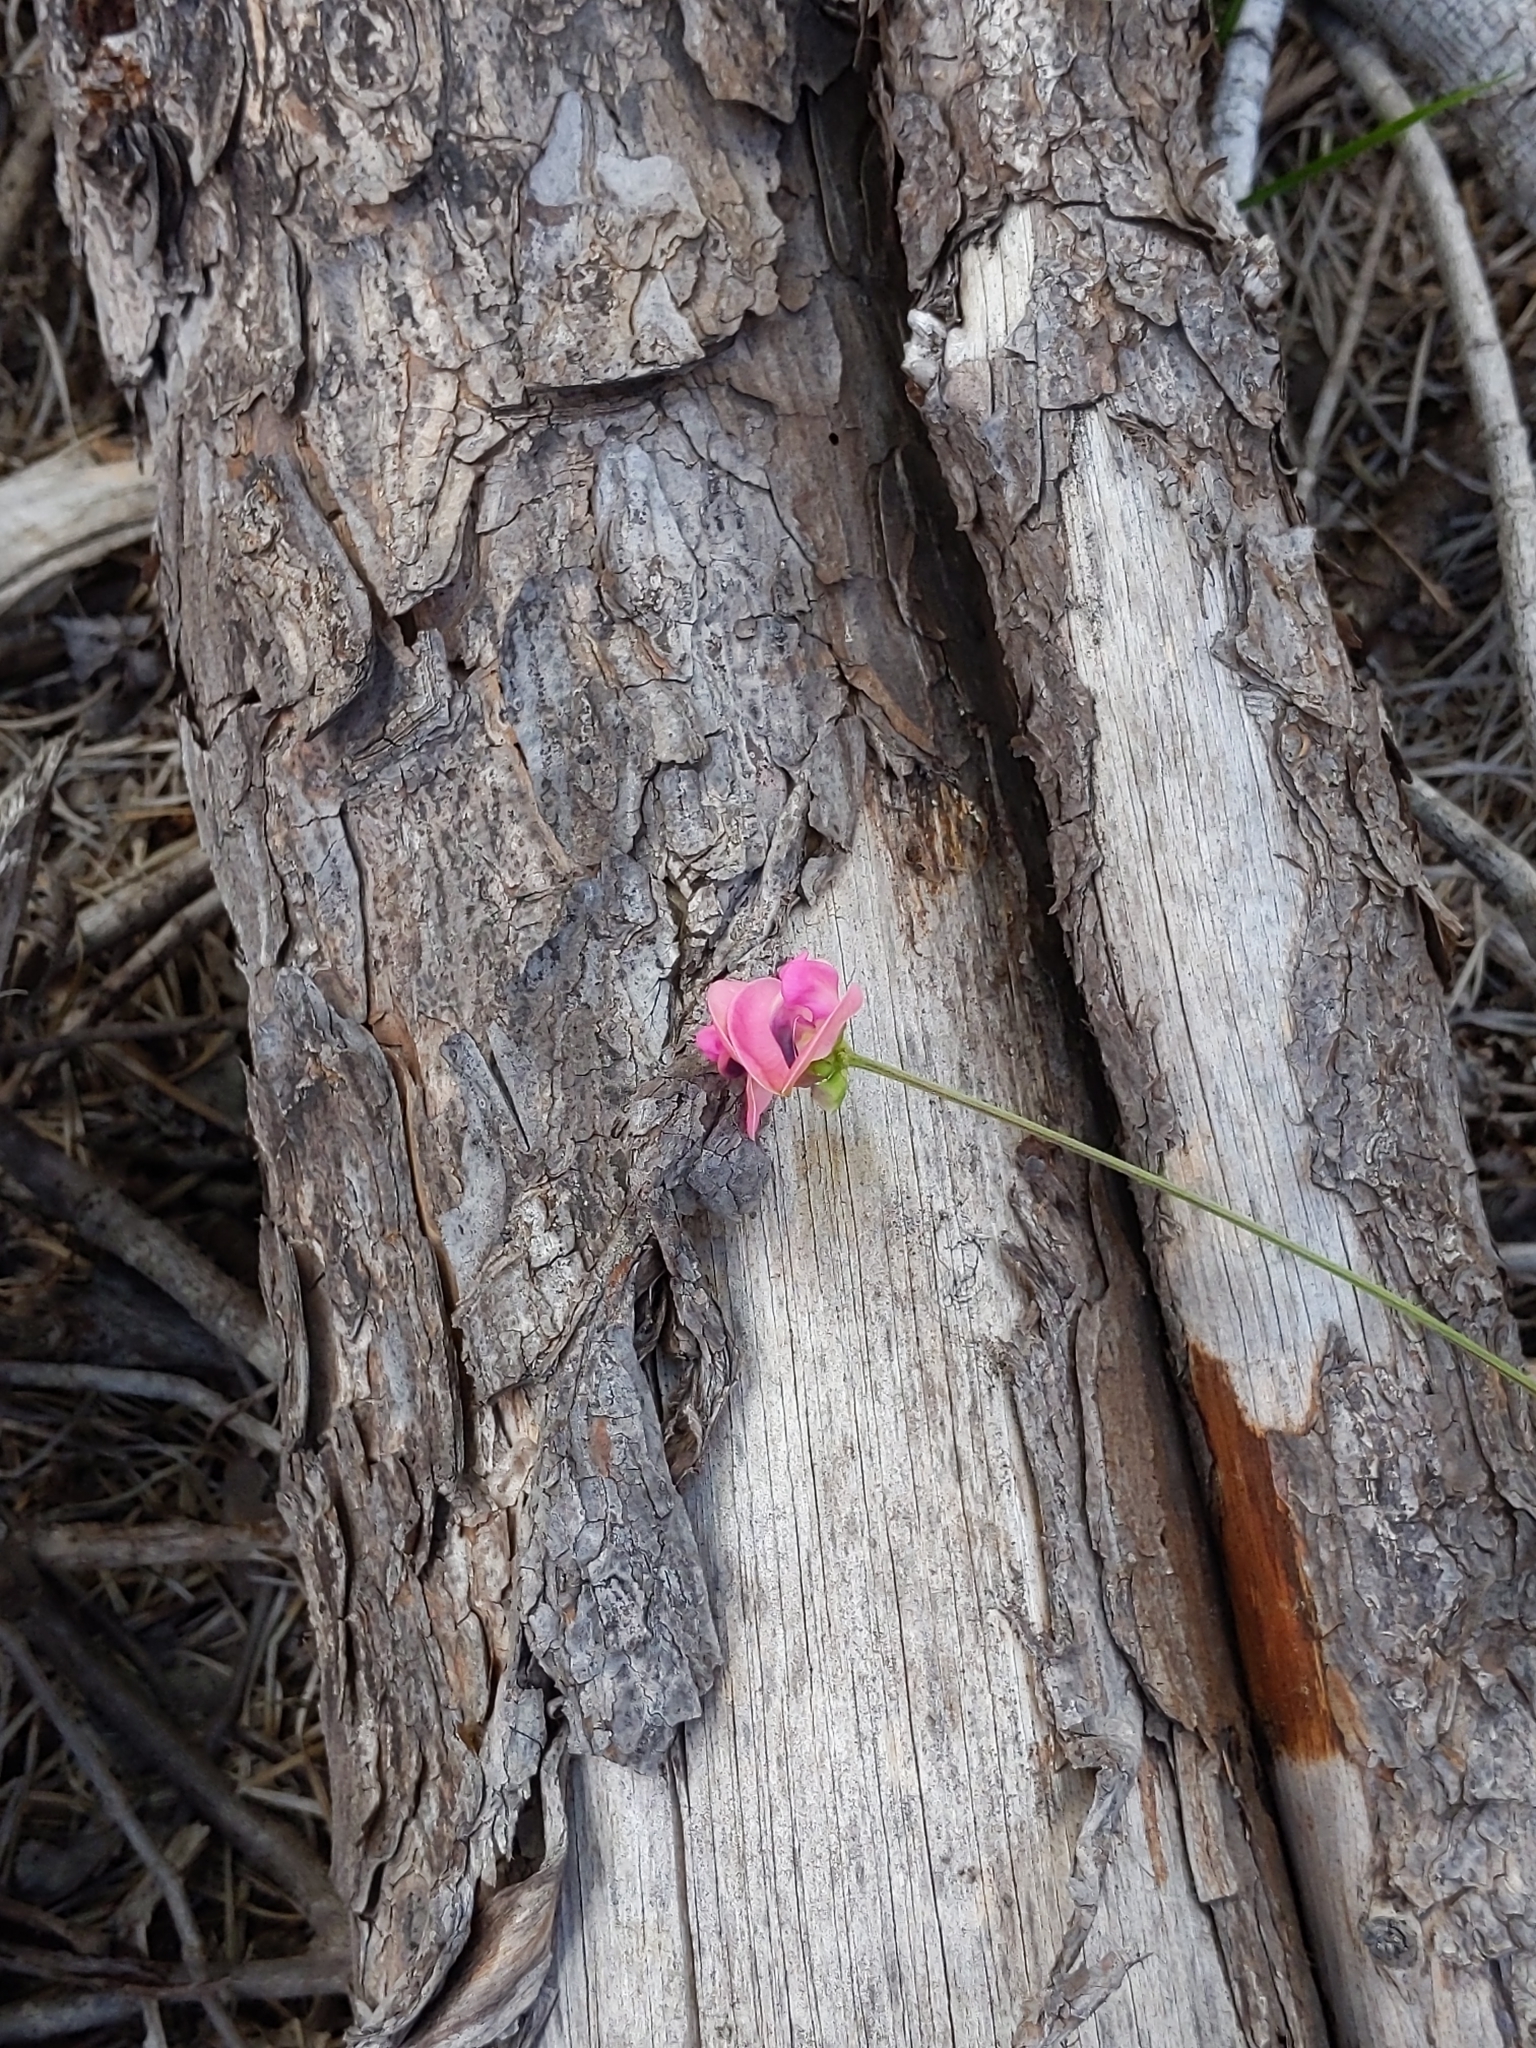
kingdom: Plantae
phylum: Tracheophyta
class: Magnoliopsida
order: Fabales
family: Fabaceae
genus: Strophostyles
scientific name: Strophostyles umbellata
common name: Perennial wild bean
